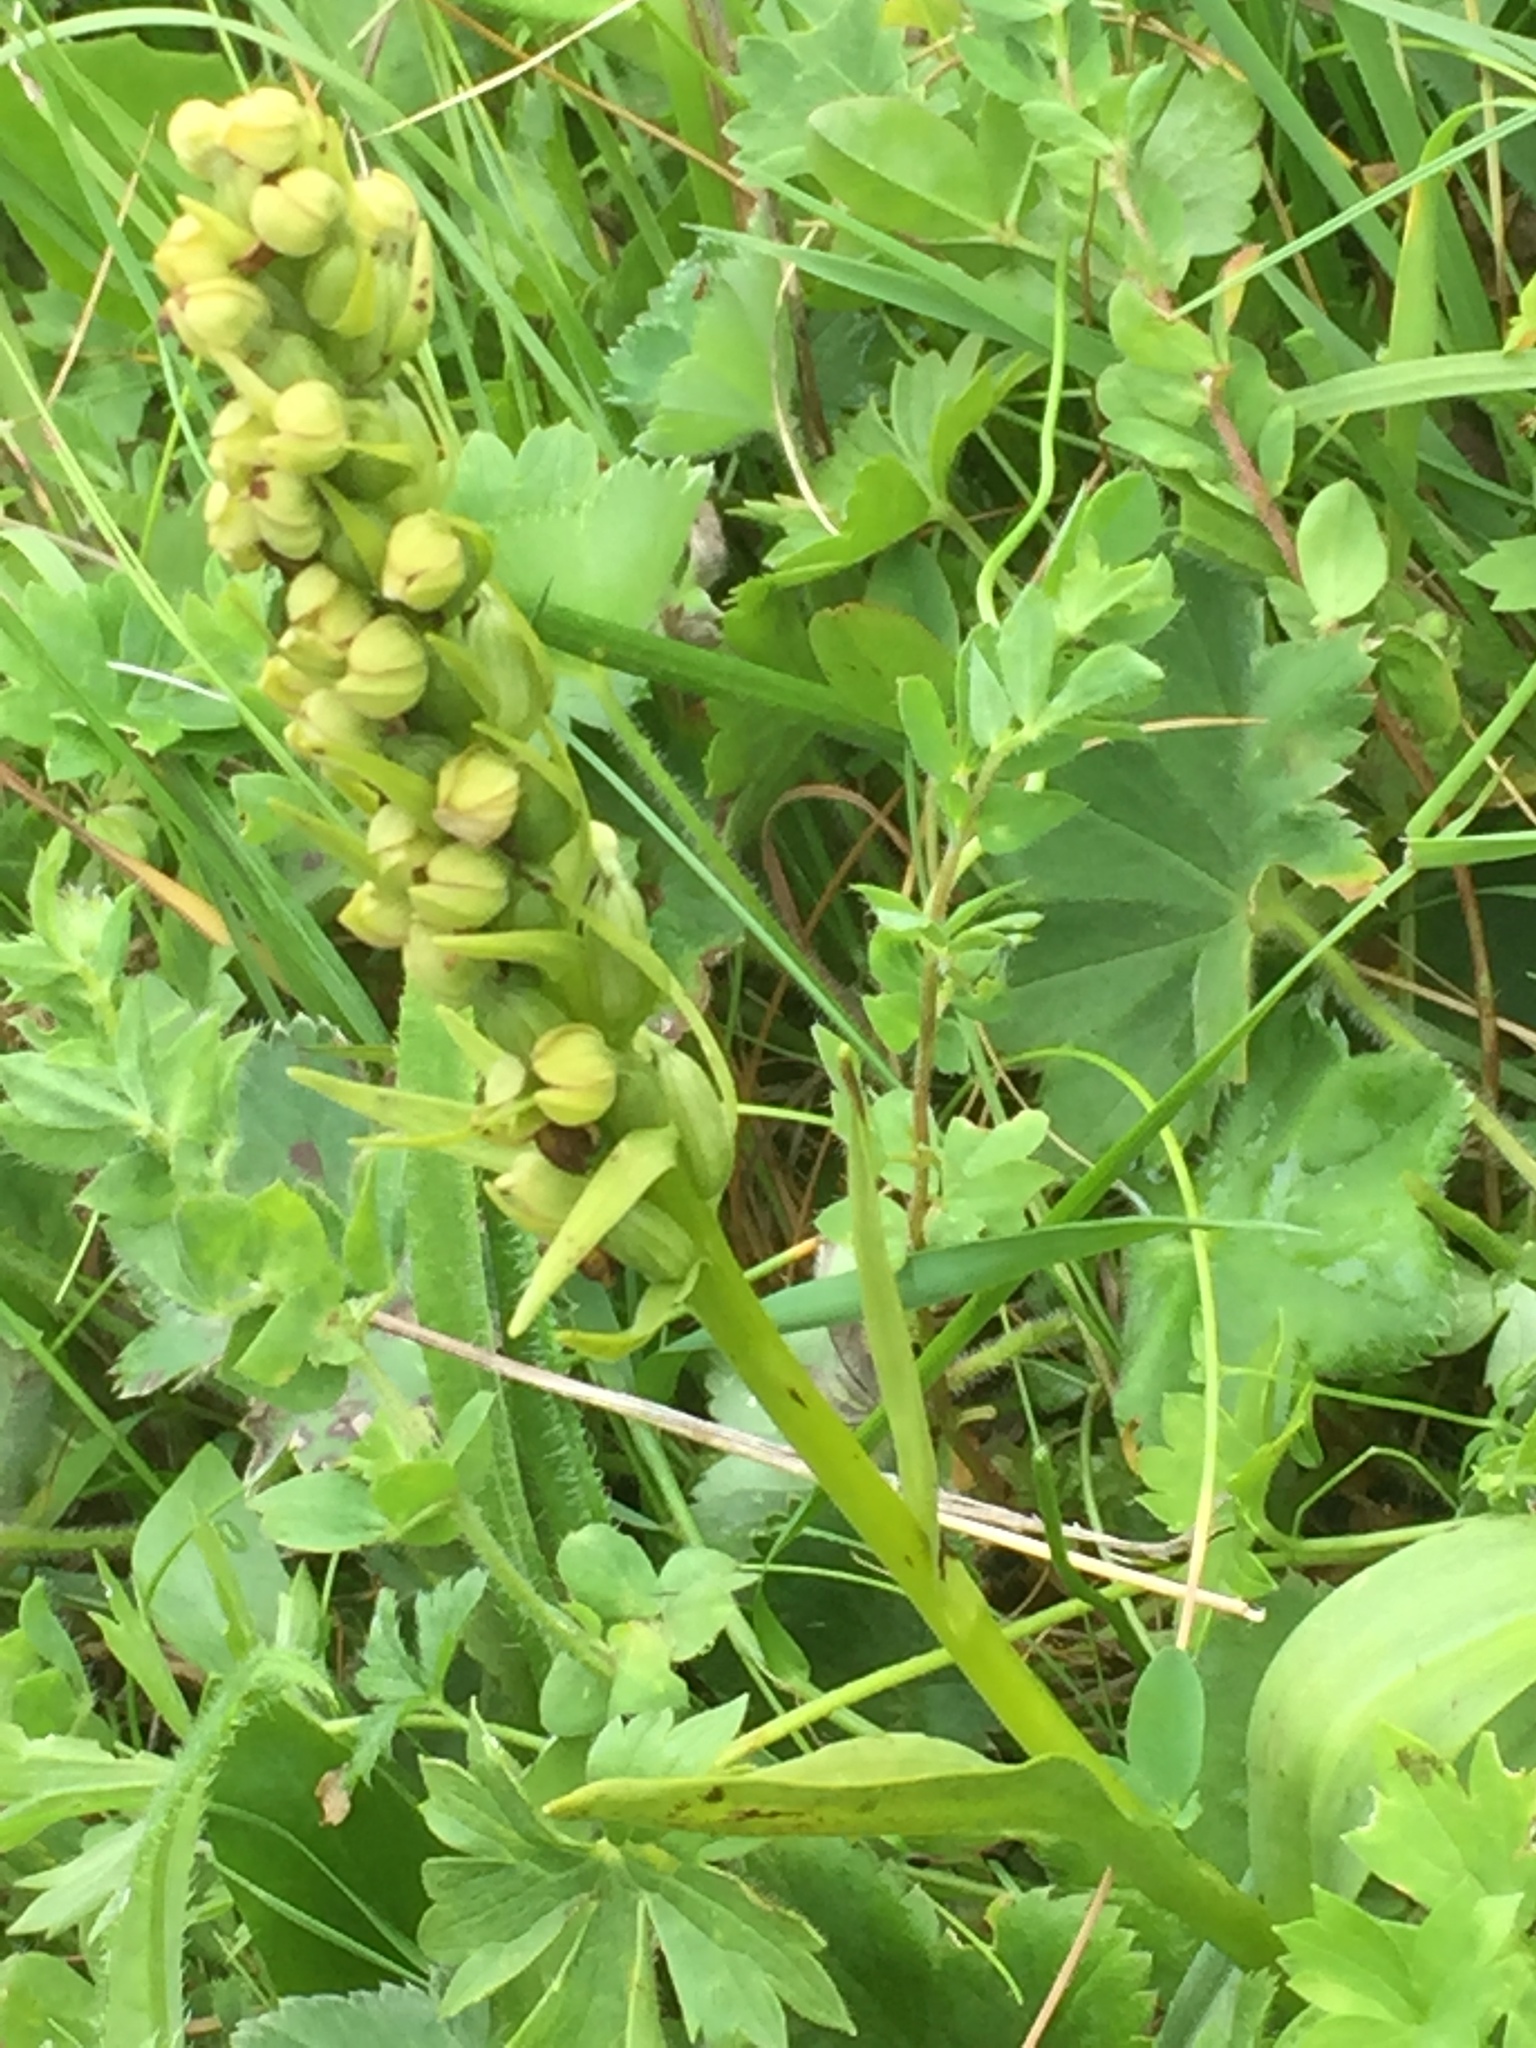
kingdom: Plantae
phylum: Tracheophyta
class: Liliopsida
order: Asparagales
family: Orchidaceae
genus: Dactylorhiza
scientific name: Dactylorhiza viridis
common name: Longbract frog orchid
